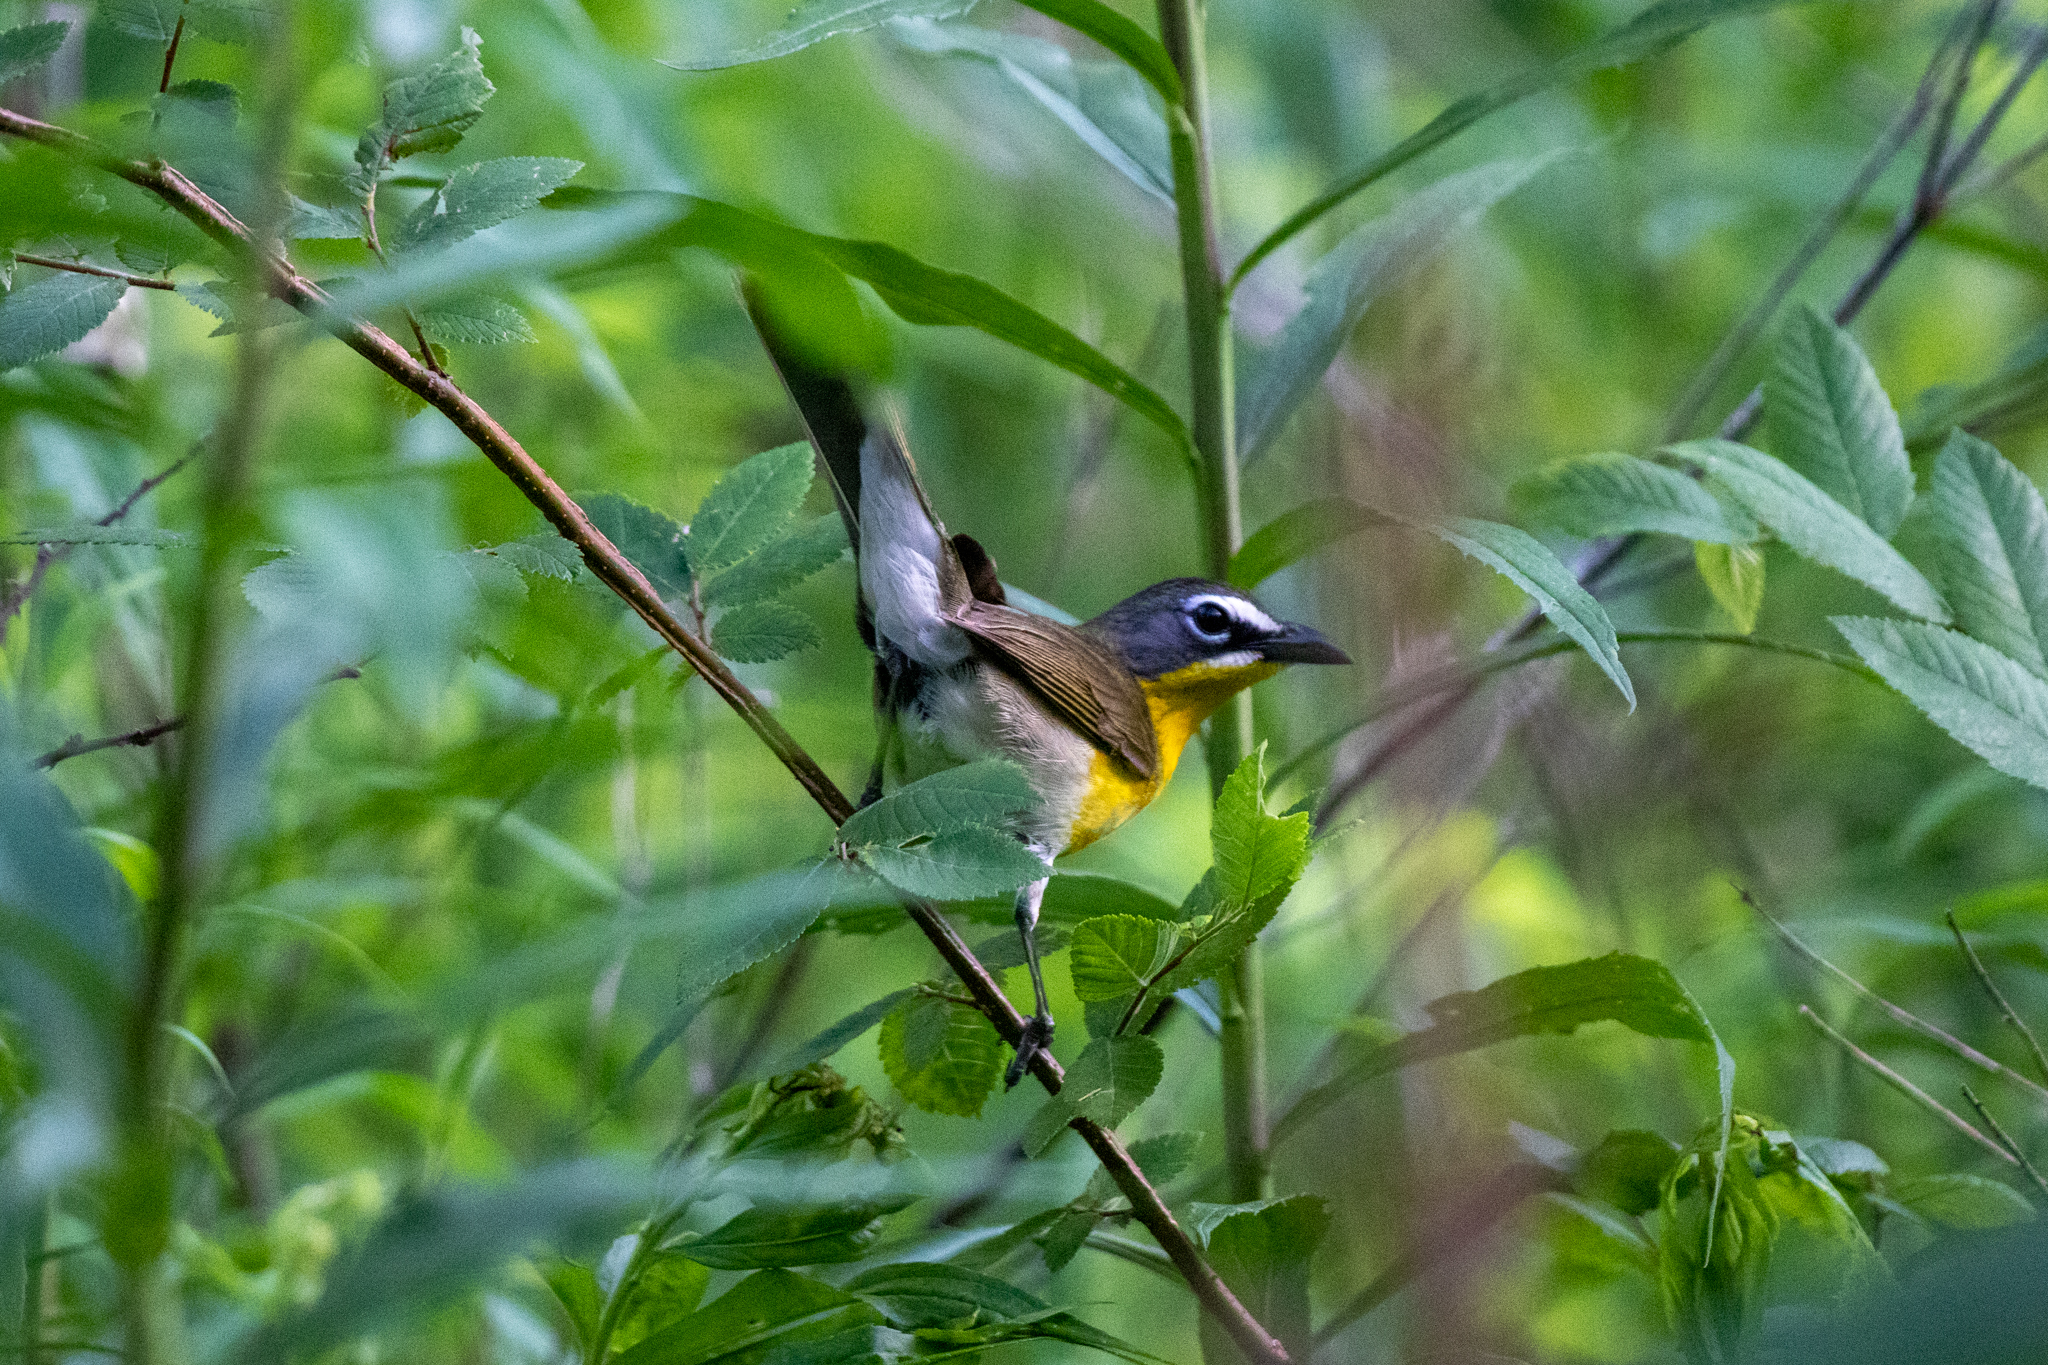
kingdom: Animalia
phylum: Chordata
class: Aves
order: Passeriformes
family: Parulidae
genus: Icteria
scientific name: Icteria virens
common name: Yellow-breasted chat
